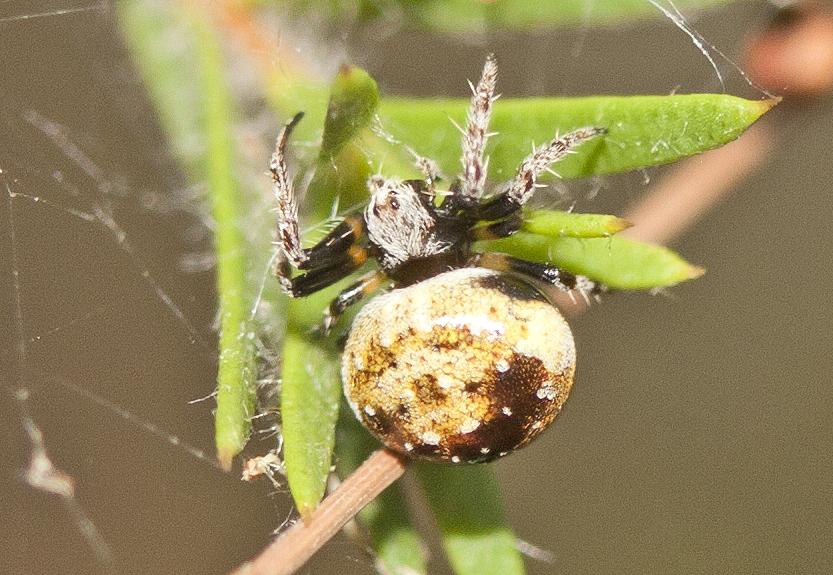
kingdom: Animalia
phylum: Arthropoda
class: Arachnida
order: Araneae
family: Araneidae
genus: Araneus
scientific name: Araneus rotundulus
